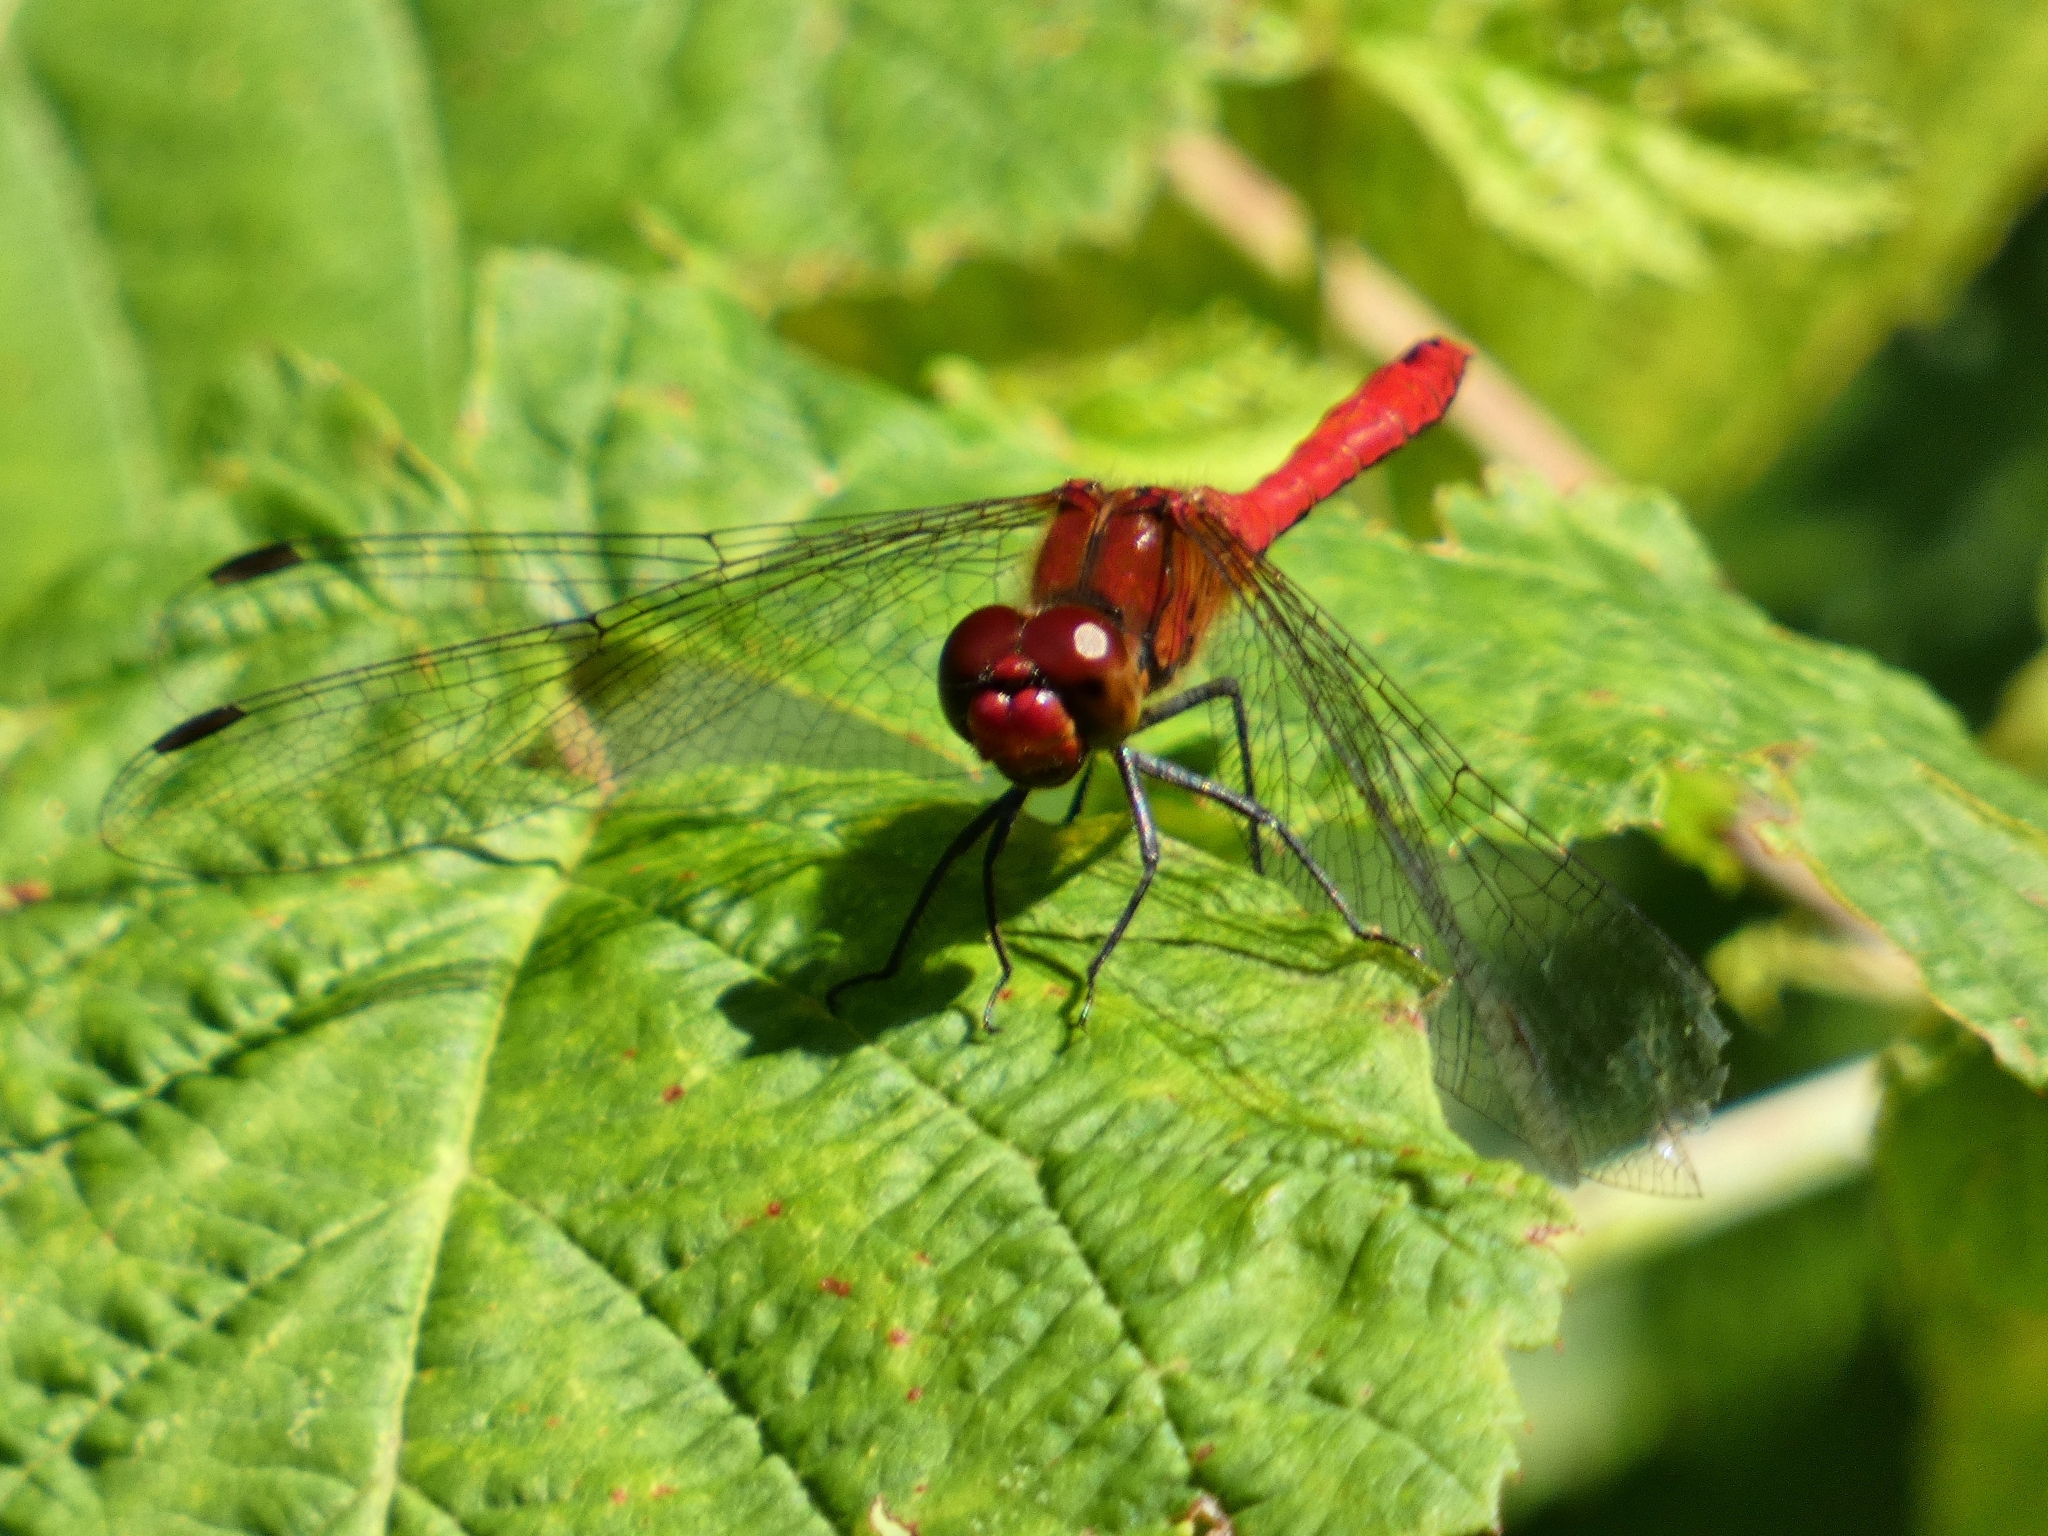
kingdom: Animalia
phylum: Arthropoda
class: Insecta
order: Odonata
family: Libellulidae
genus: Sympetrum
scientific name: Sympetrum sanguineum
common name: Ruddy darter
